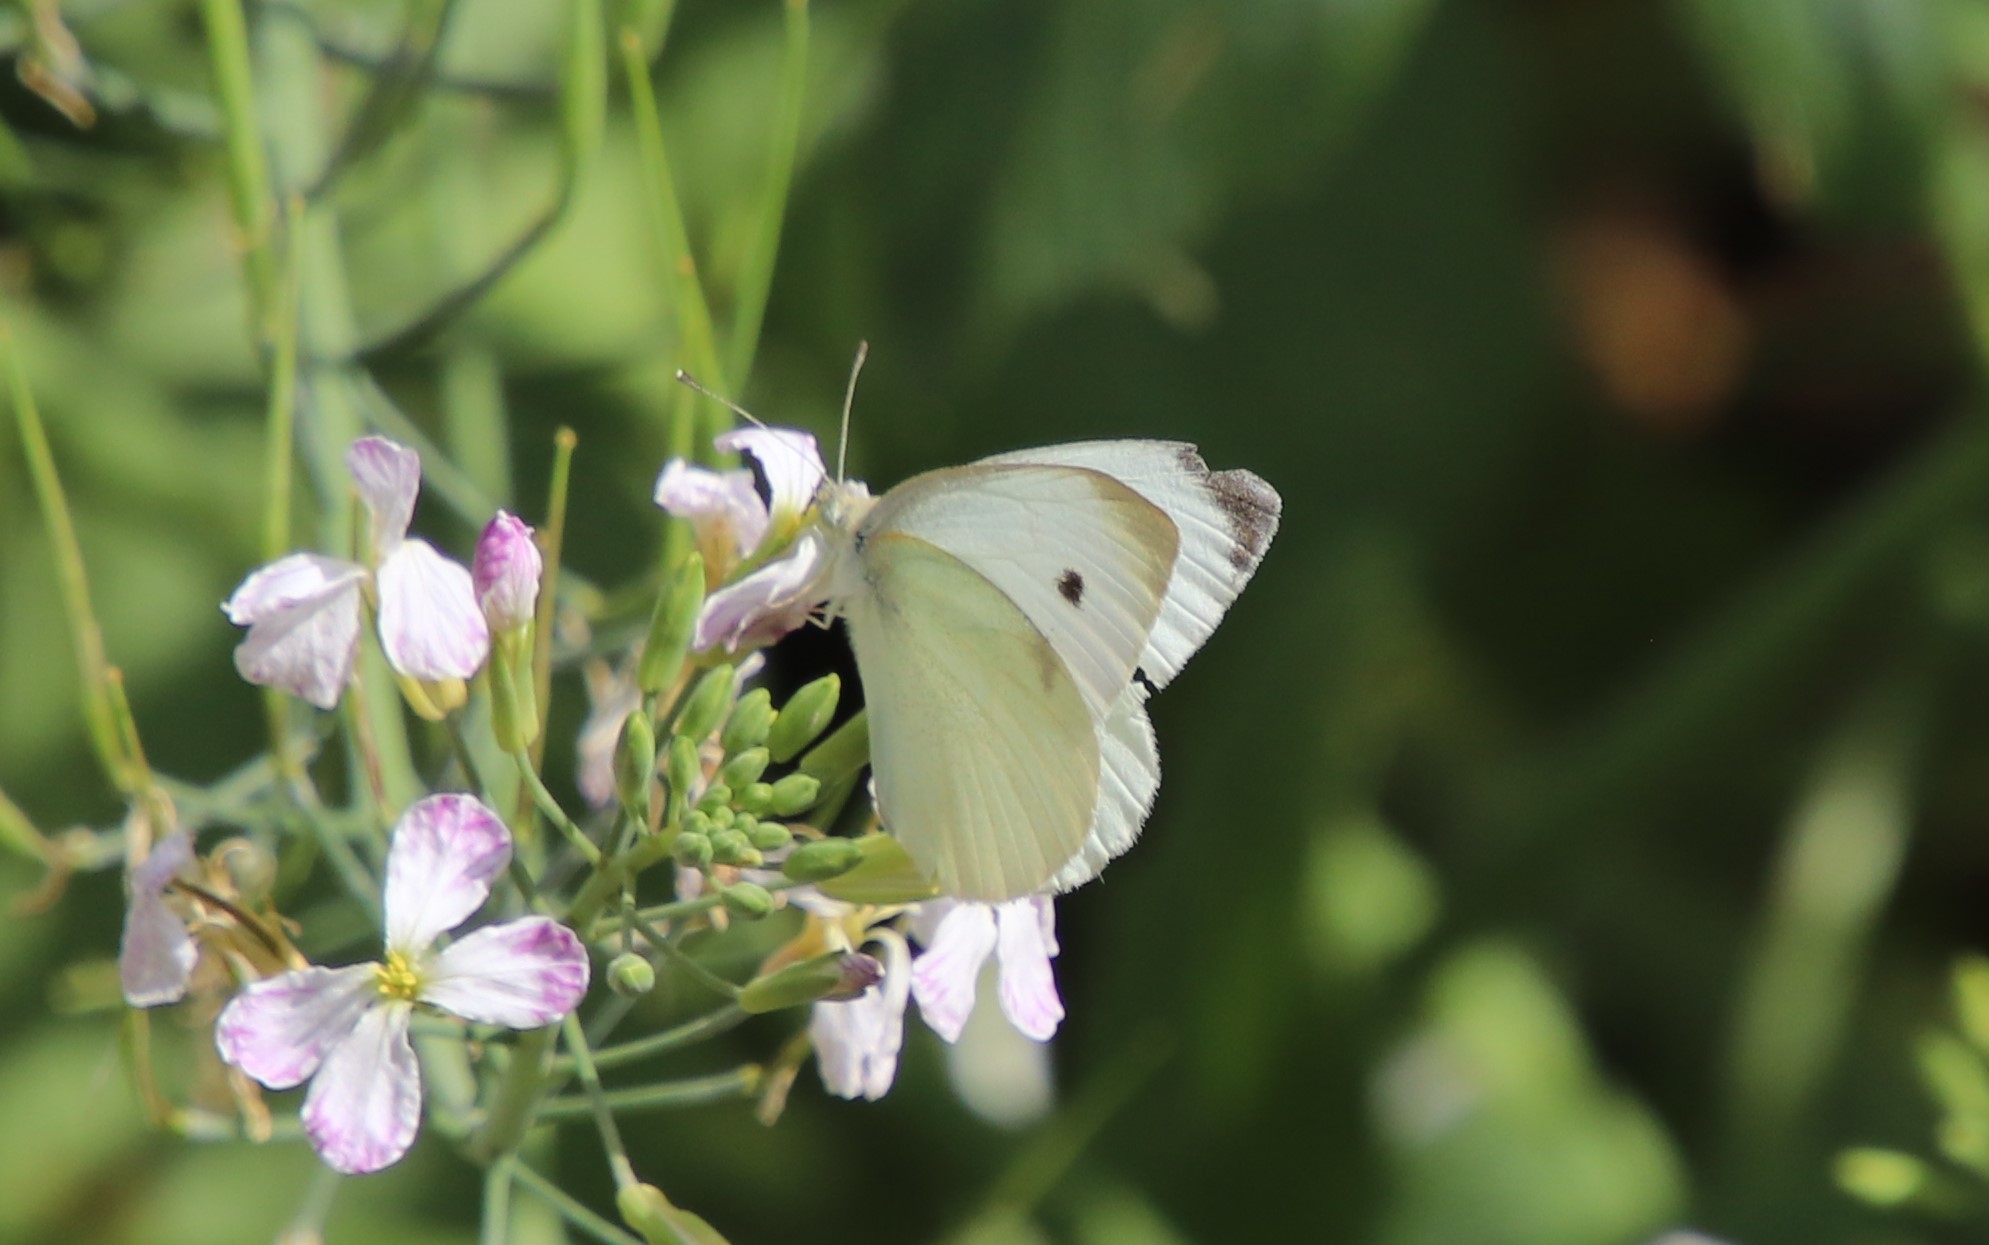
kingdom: Animalia
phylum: Arthropoda
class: Insecta
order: Lepidoptera
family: Pieridae
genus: Pieris
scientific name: Pieris rapae
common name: Small white
